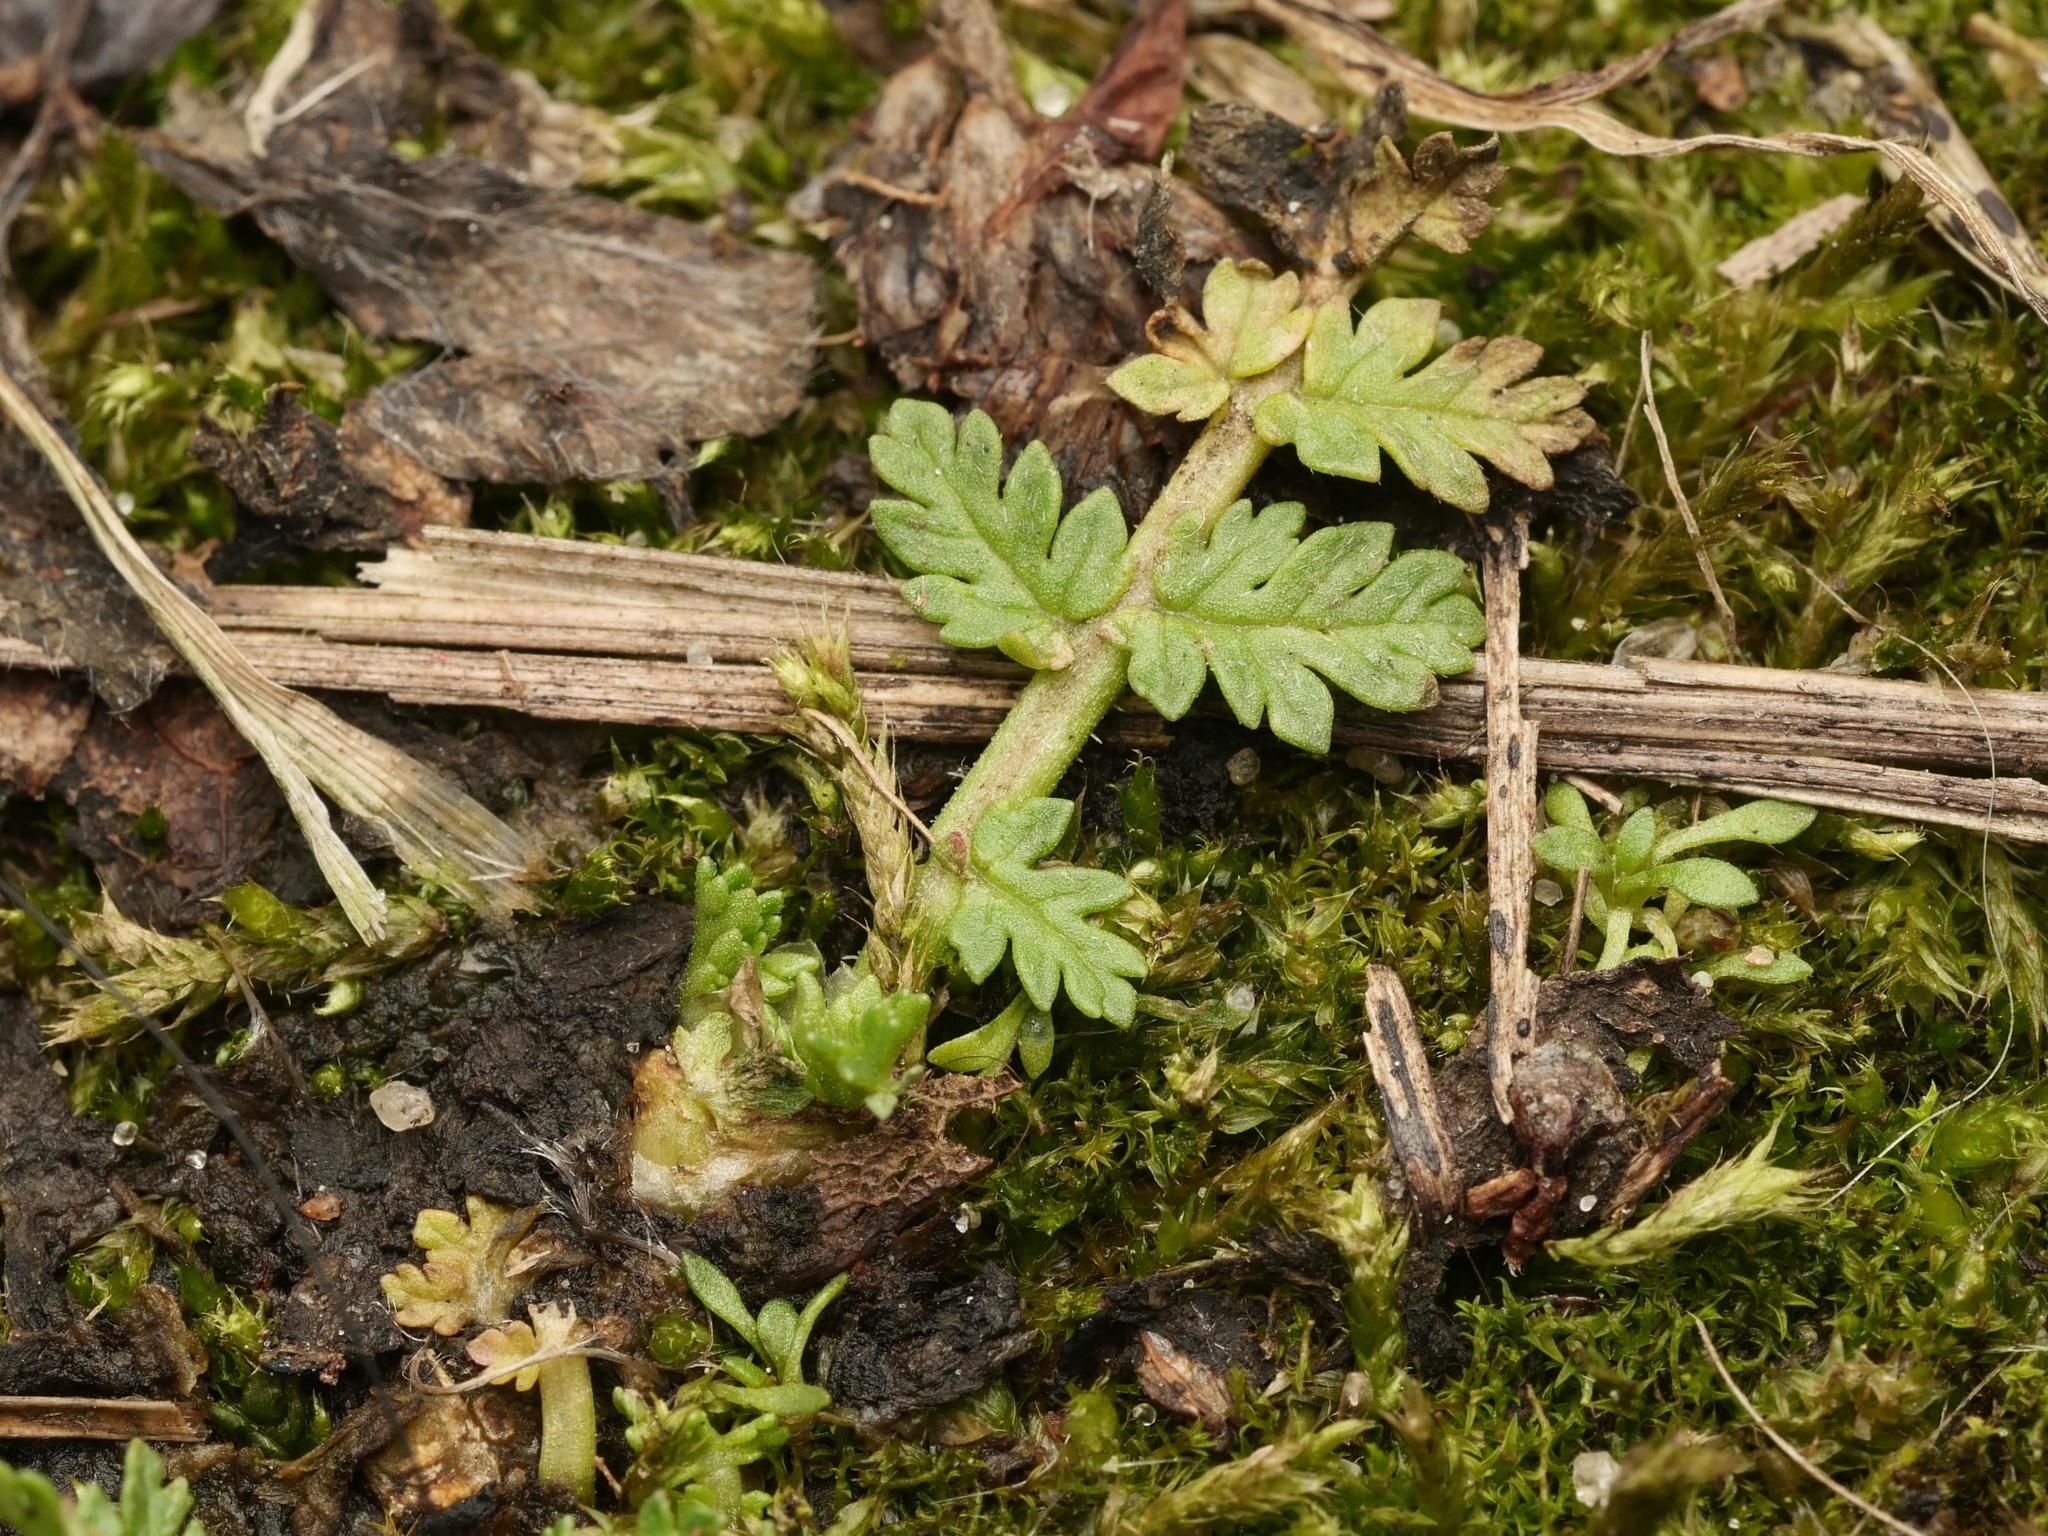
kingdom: Plantae
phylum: Tracheophyta
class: Magnoliopsida
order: Geraniales
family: Geraniaceae
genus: Erodium
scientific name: Erodium cicutarium
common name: Common stork's-bill
